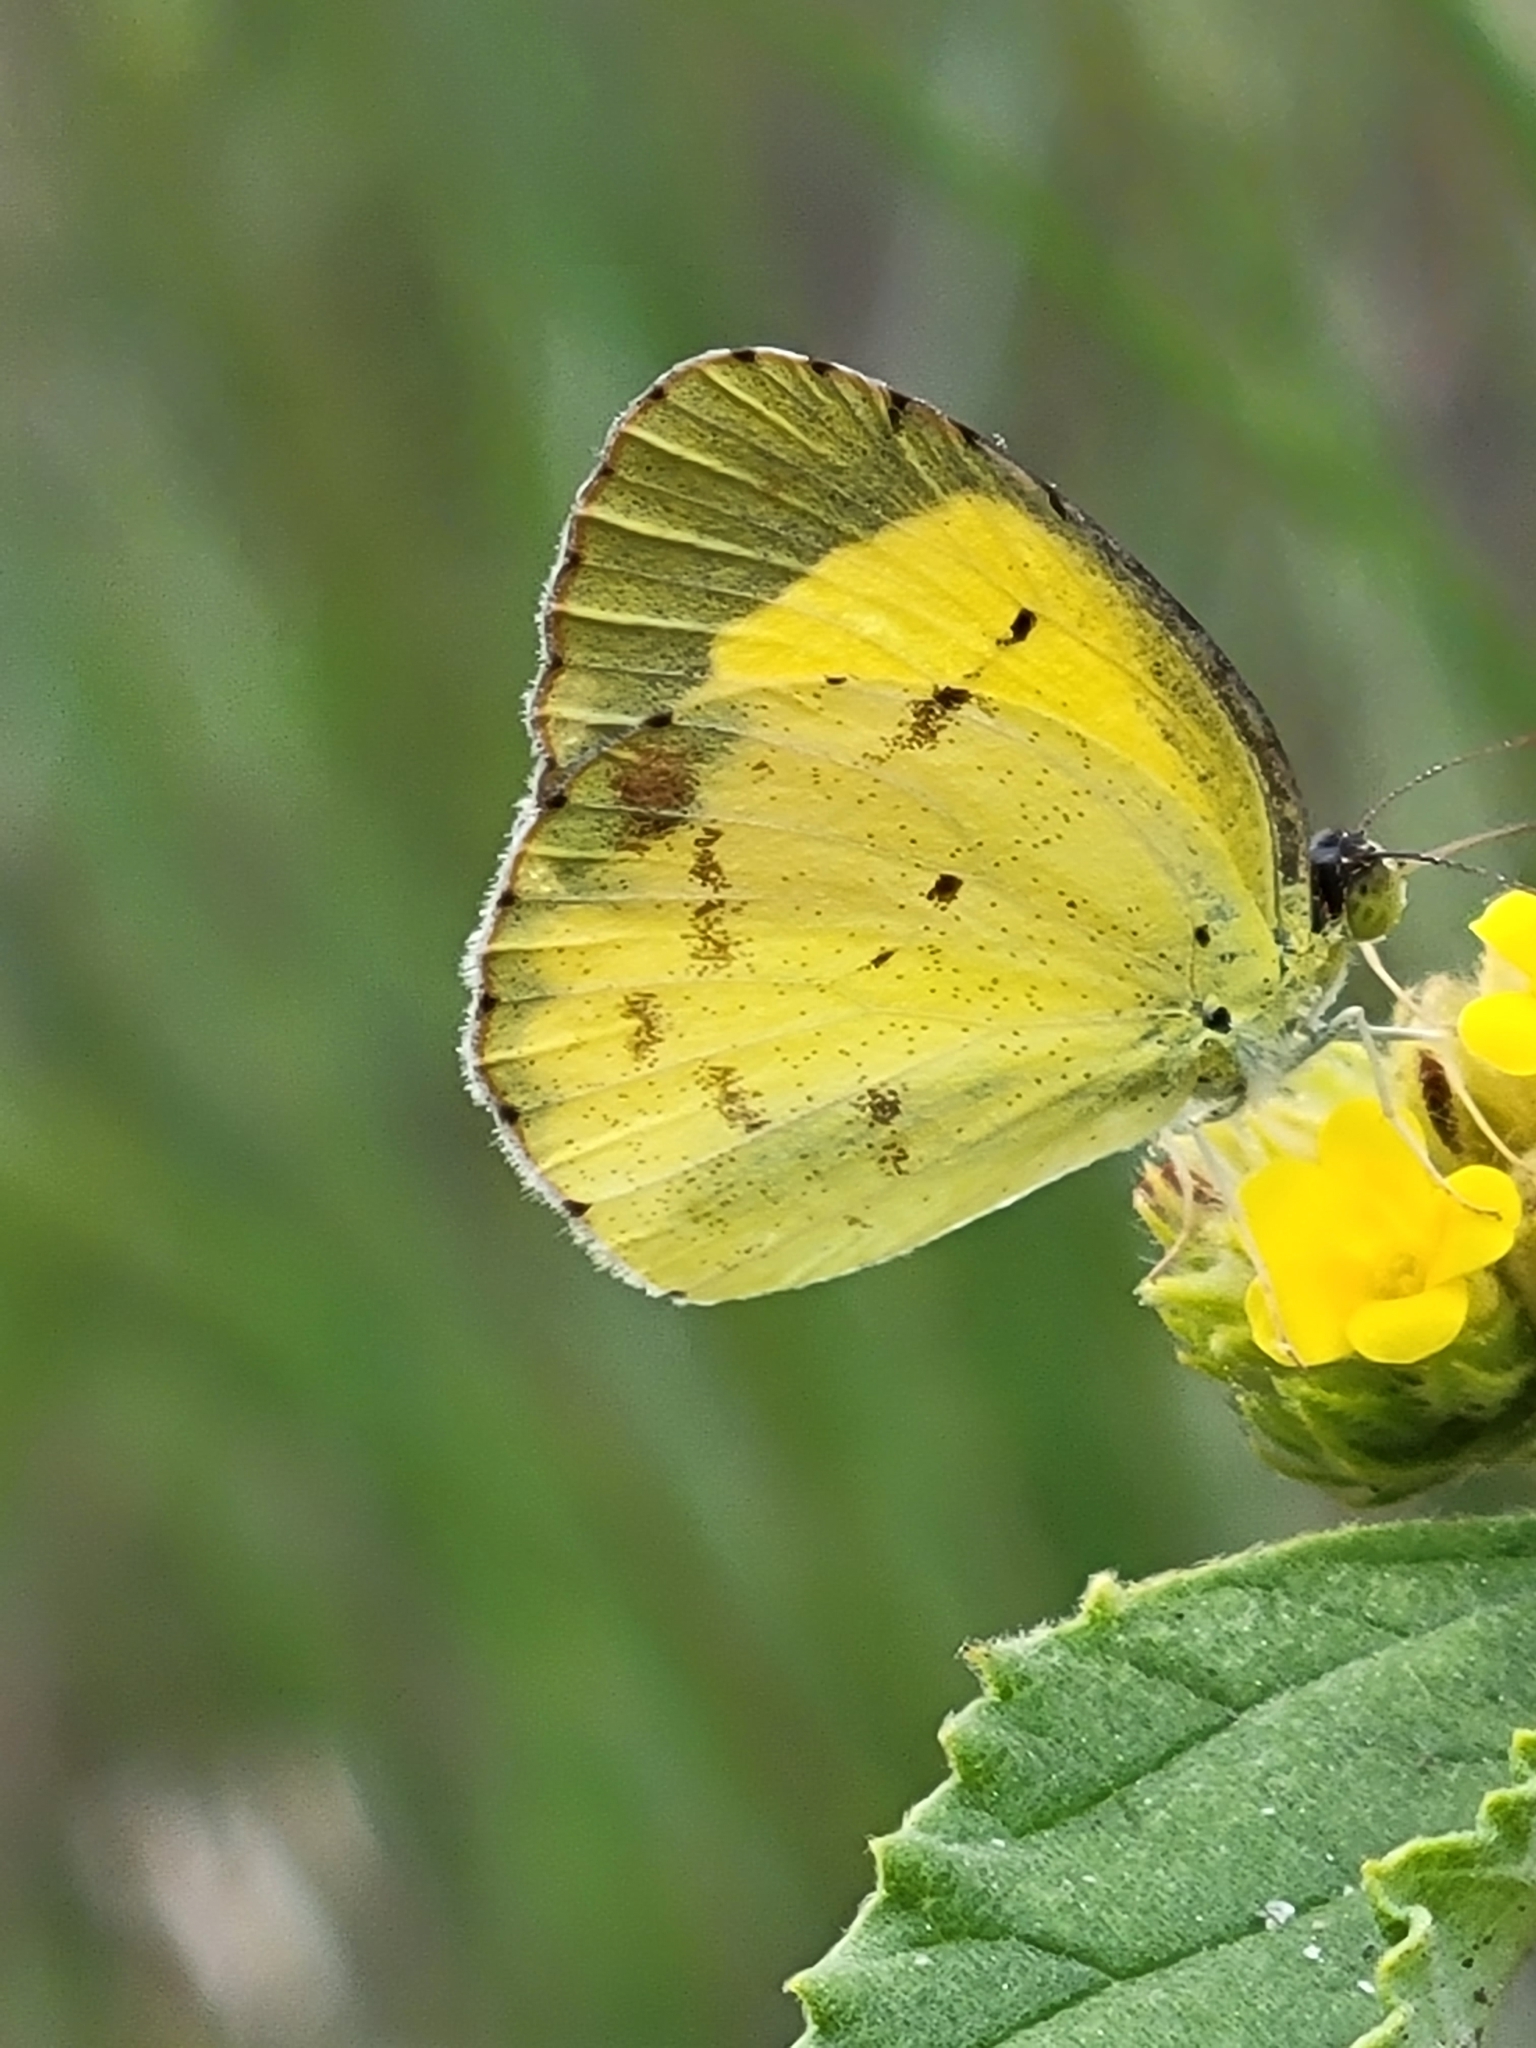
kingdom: Animalia
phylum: Arthropoda
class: Insecta
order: Lepidoptera
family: Pieridae
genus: Pyrisitia
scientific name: Pyrisitia lisa
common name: Little yellow
